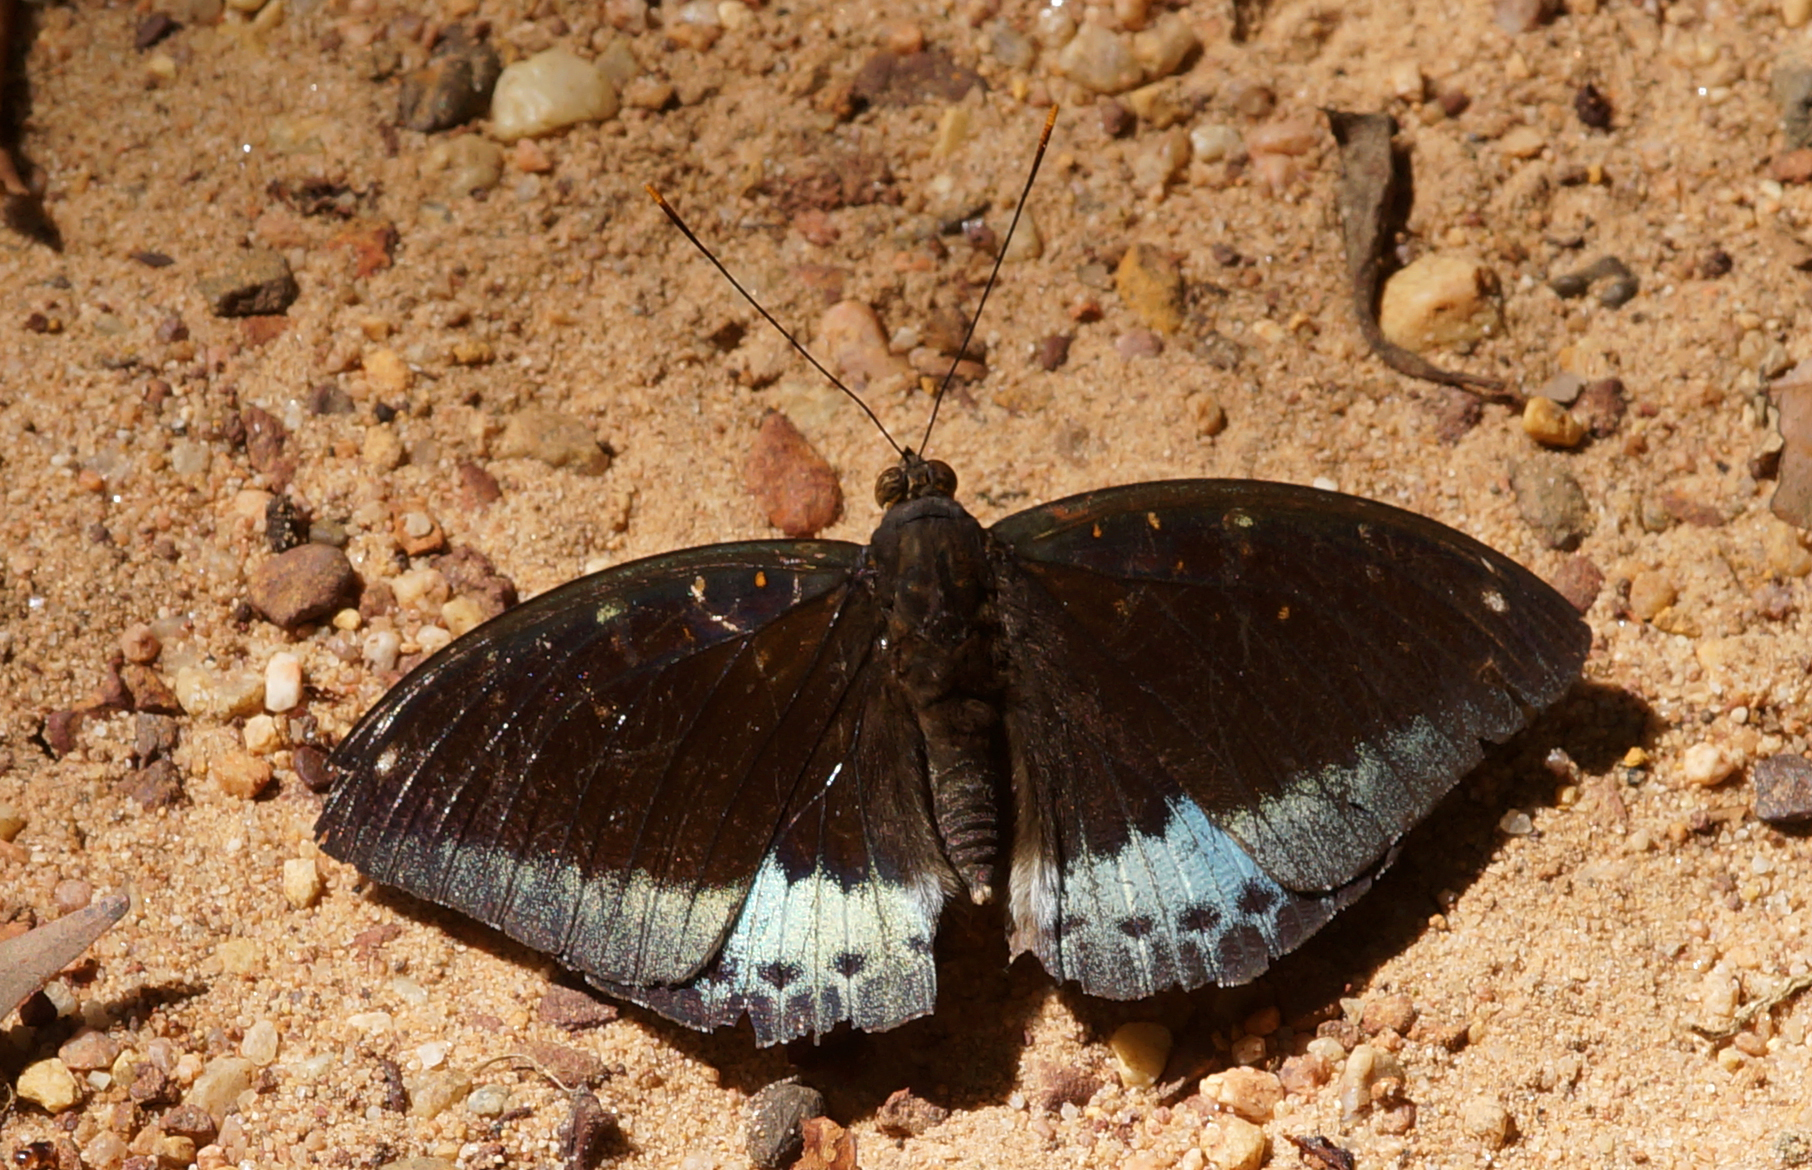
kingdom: Animalia
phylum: Arthropoda
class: Insecta
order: Lepidoptera
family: Nymphalidae
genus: Lexias
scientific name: Lexias pardalis
